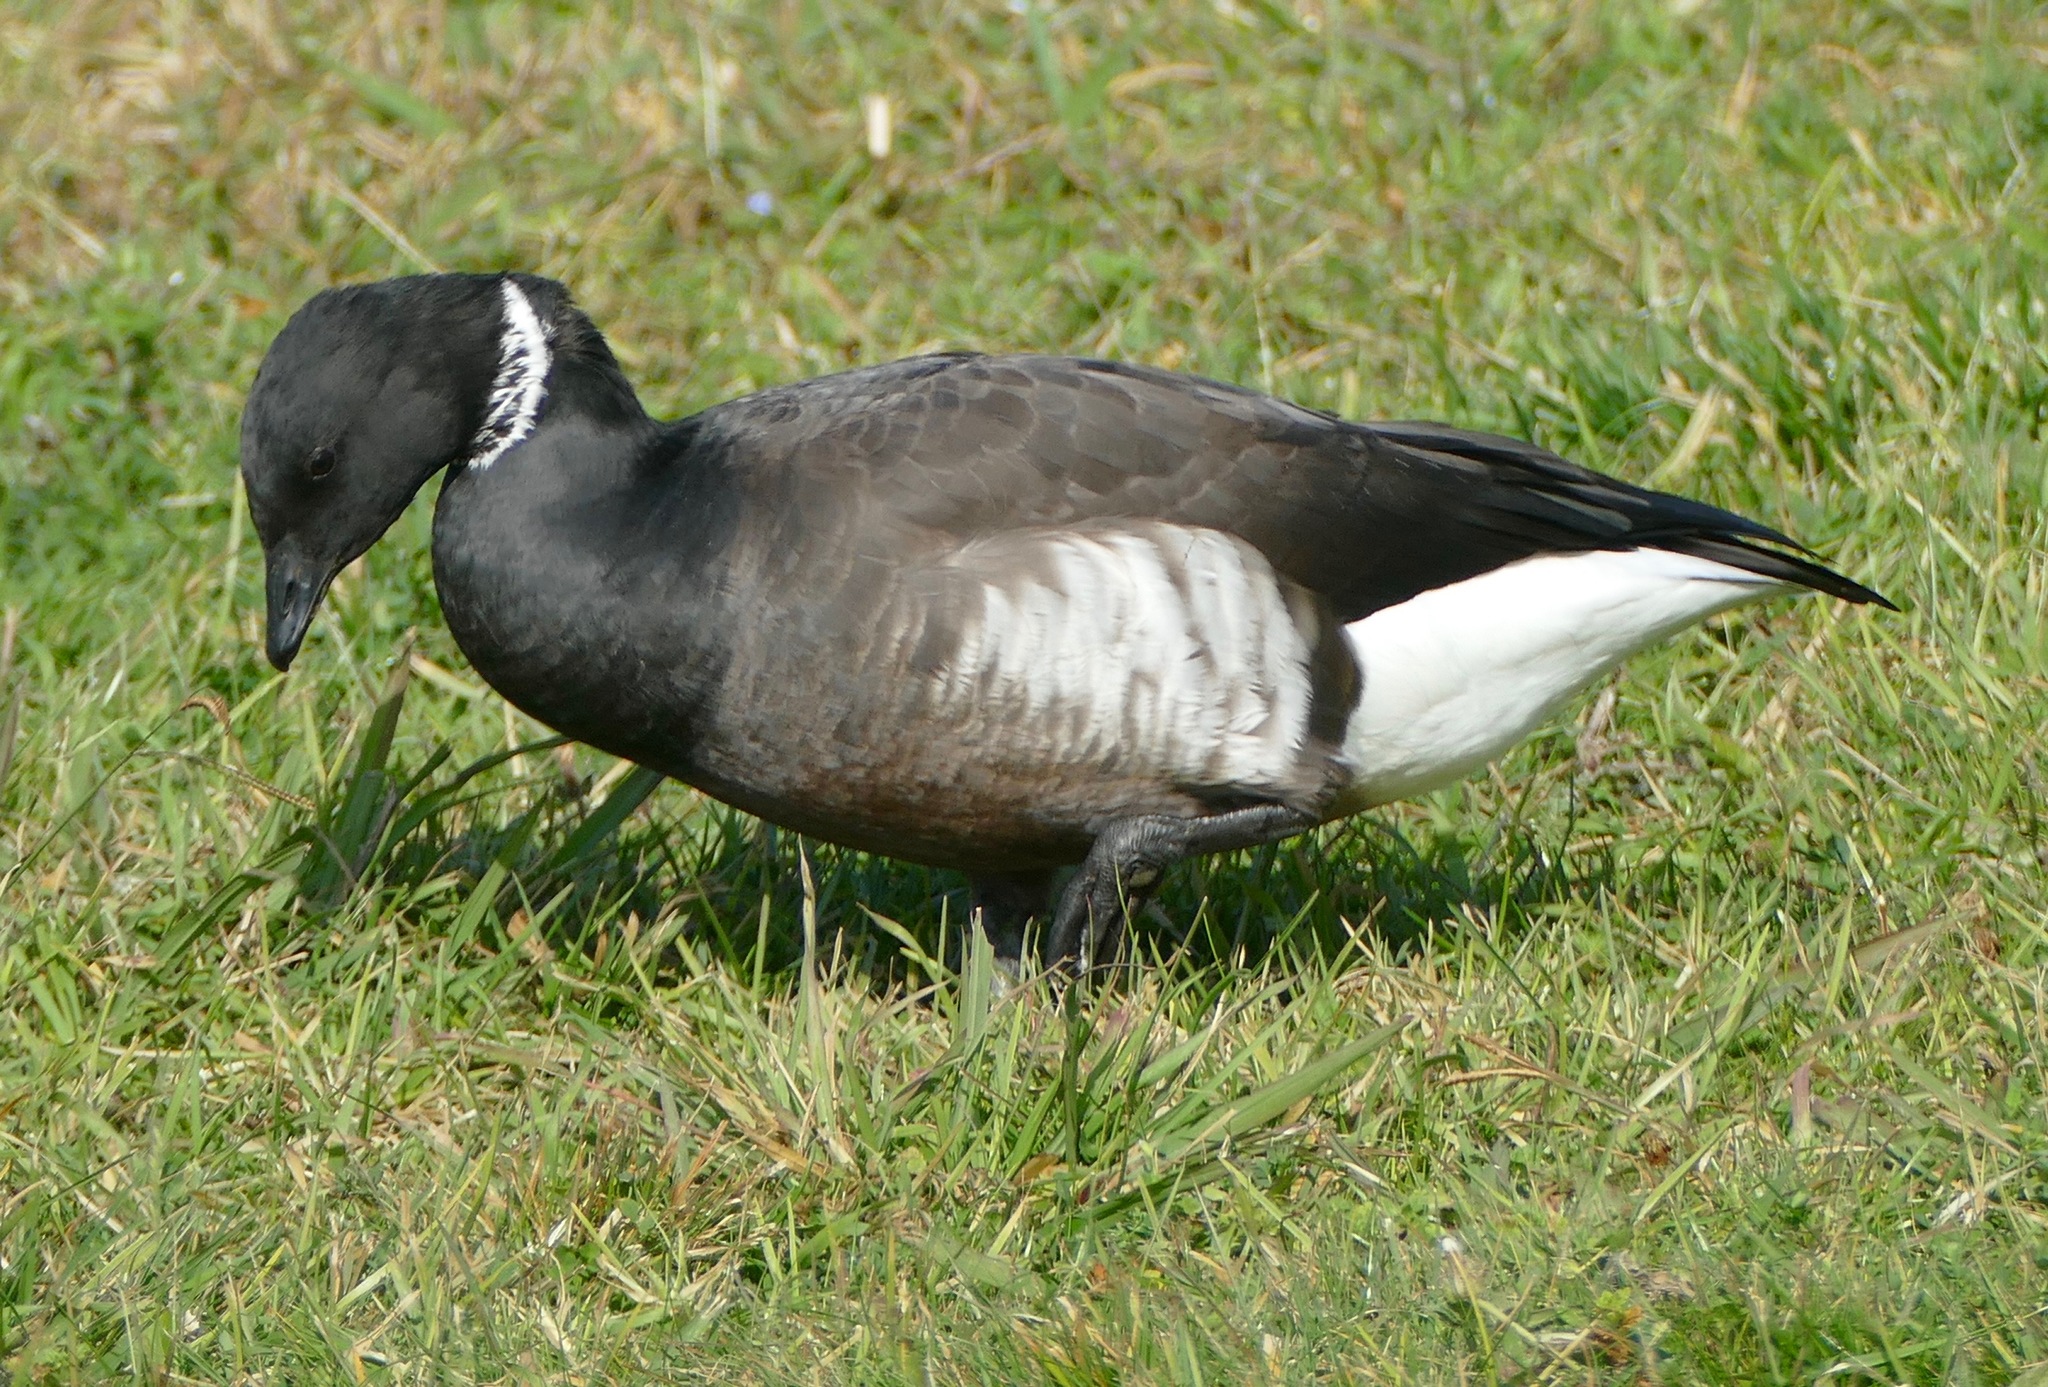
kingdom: Animalia
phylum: Chordata
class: Aves
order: Anseriformes
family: Anatidae
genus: Branta
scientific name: Branta bernicla
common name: Brant goose
